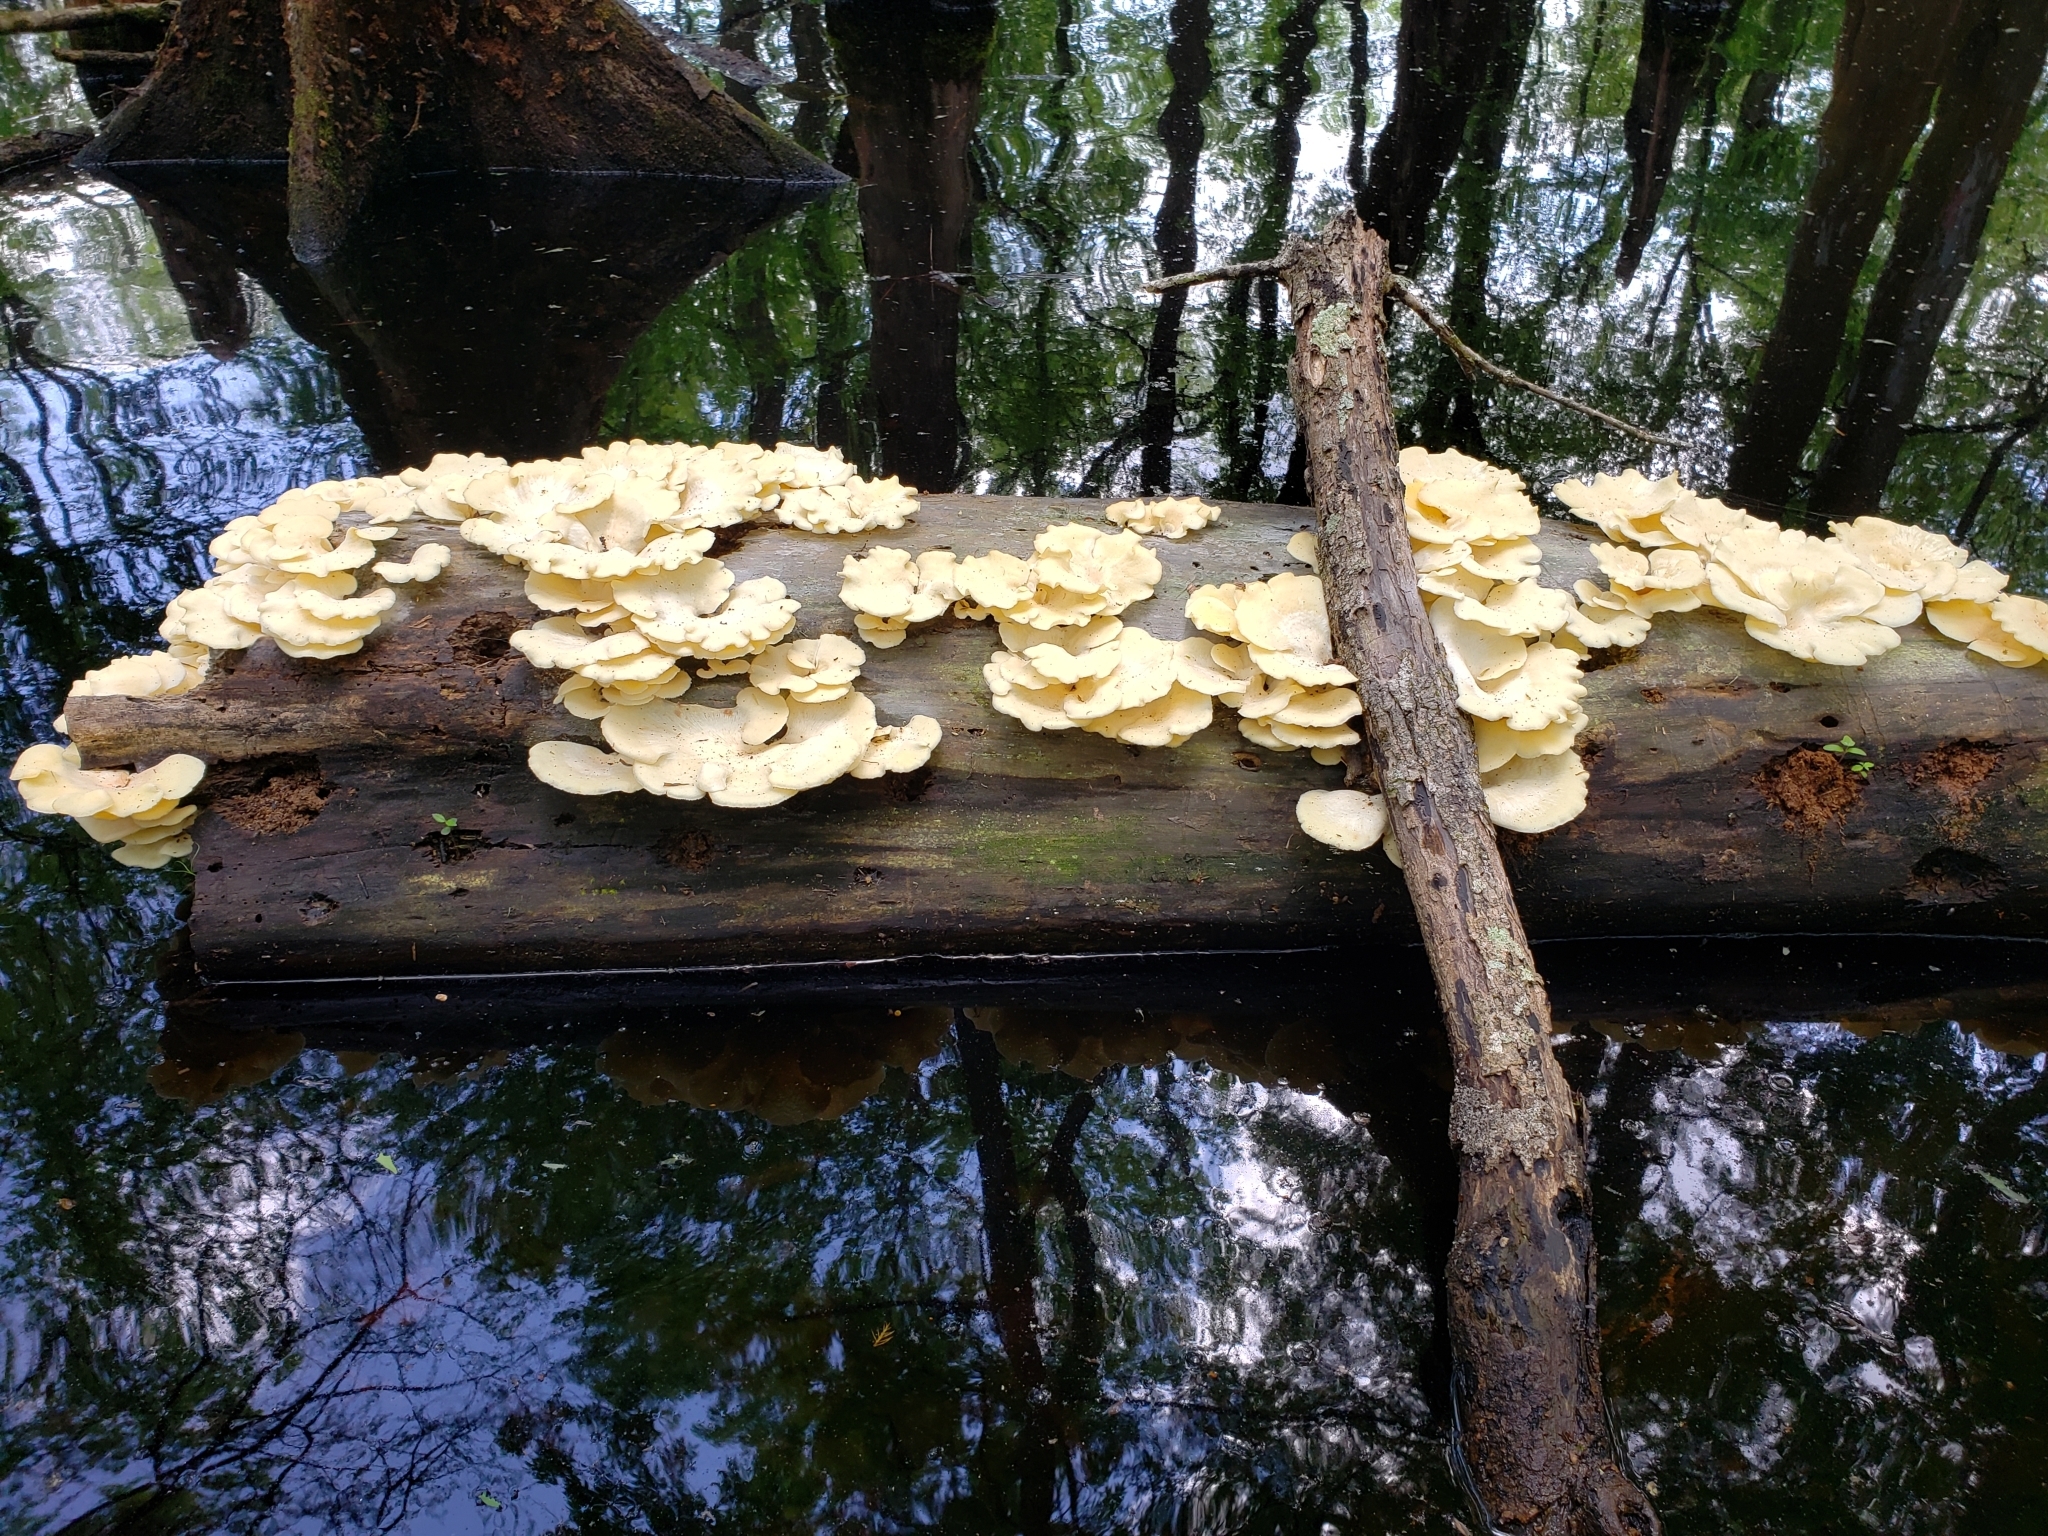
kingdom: Fungi
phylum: Basidiomycota
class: Agaricomycetes
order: Polyporales
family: Polyporaceae
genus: Favolus
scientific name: Favolus tenuiculus
